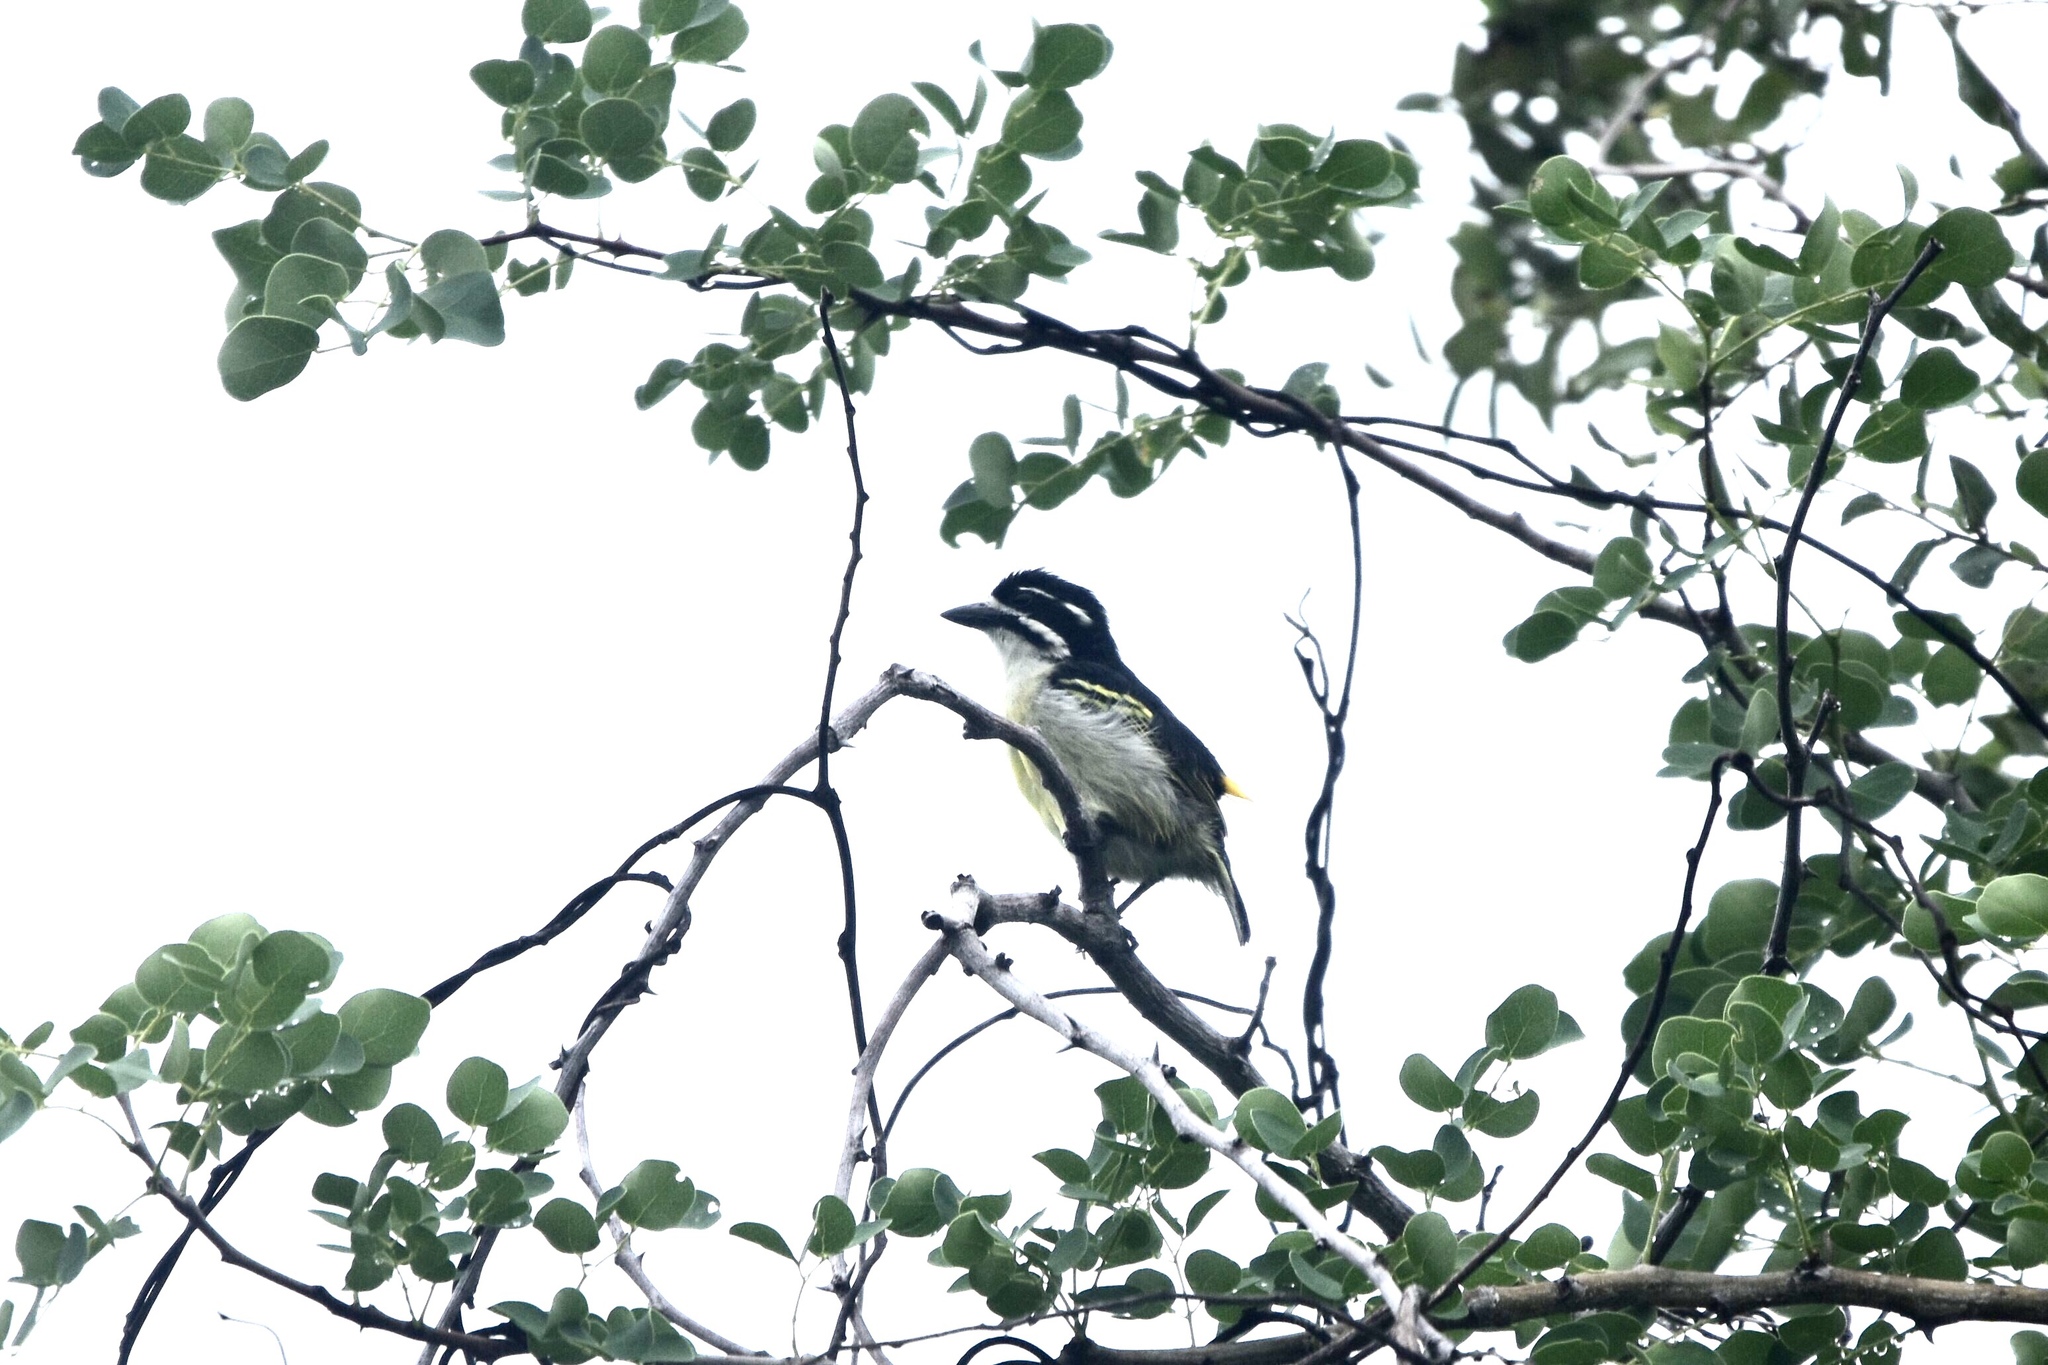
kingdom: Animalia
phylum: Chordata
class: Aves
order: Piciformes
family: Lybiidae
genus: Pogoniulus
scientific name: Pogoniulus bilineatus
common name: Yellow-rumped tinkerbird
